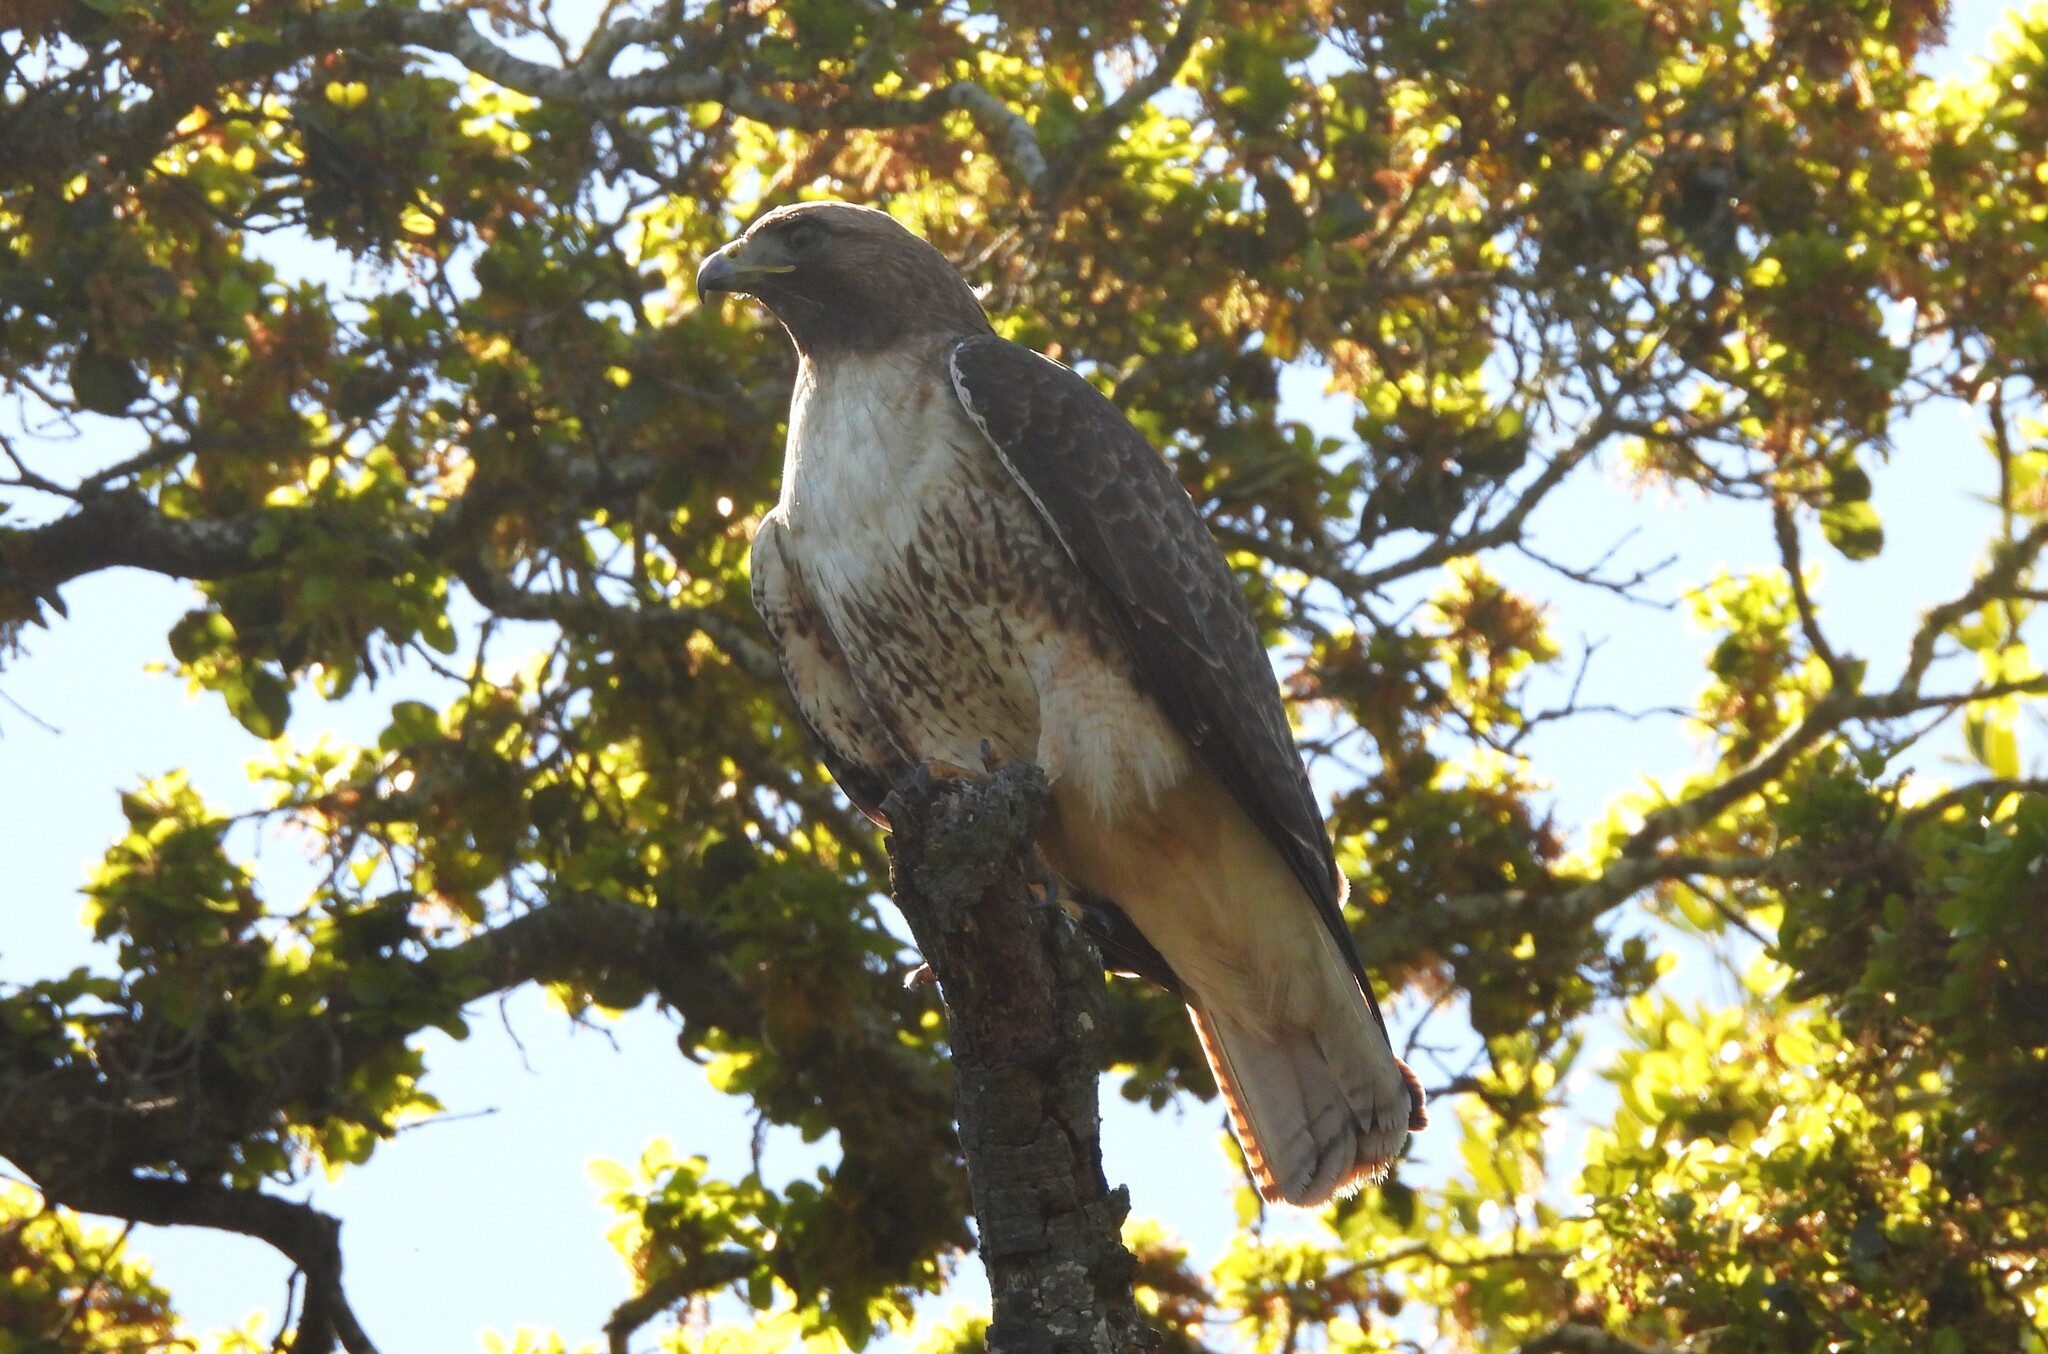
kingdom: Animalia
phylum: Chordata
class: Aves
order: Accipitriformes
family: Accipitridae
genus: Buteo
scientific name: Buteo jamaicensis
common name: Red-tailed hawk
